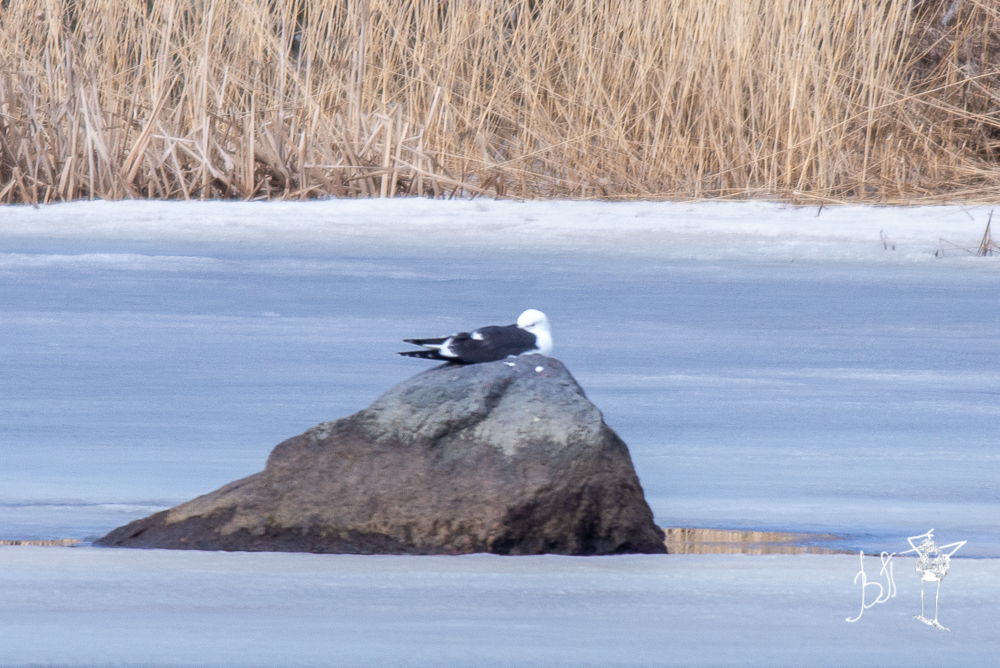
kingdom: Animalia
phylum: Chordata
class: Aves
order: Charadriiformes
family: Laridae
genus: Larus
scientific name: Larus fuscus
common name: Lesser black-backed gull
